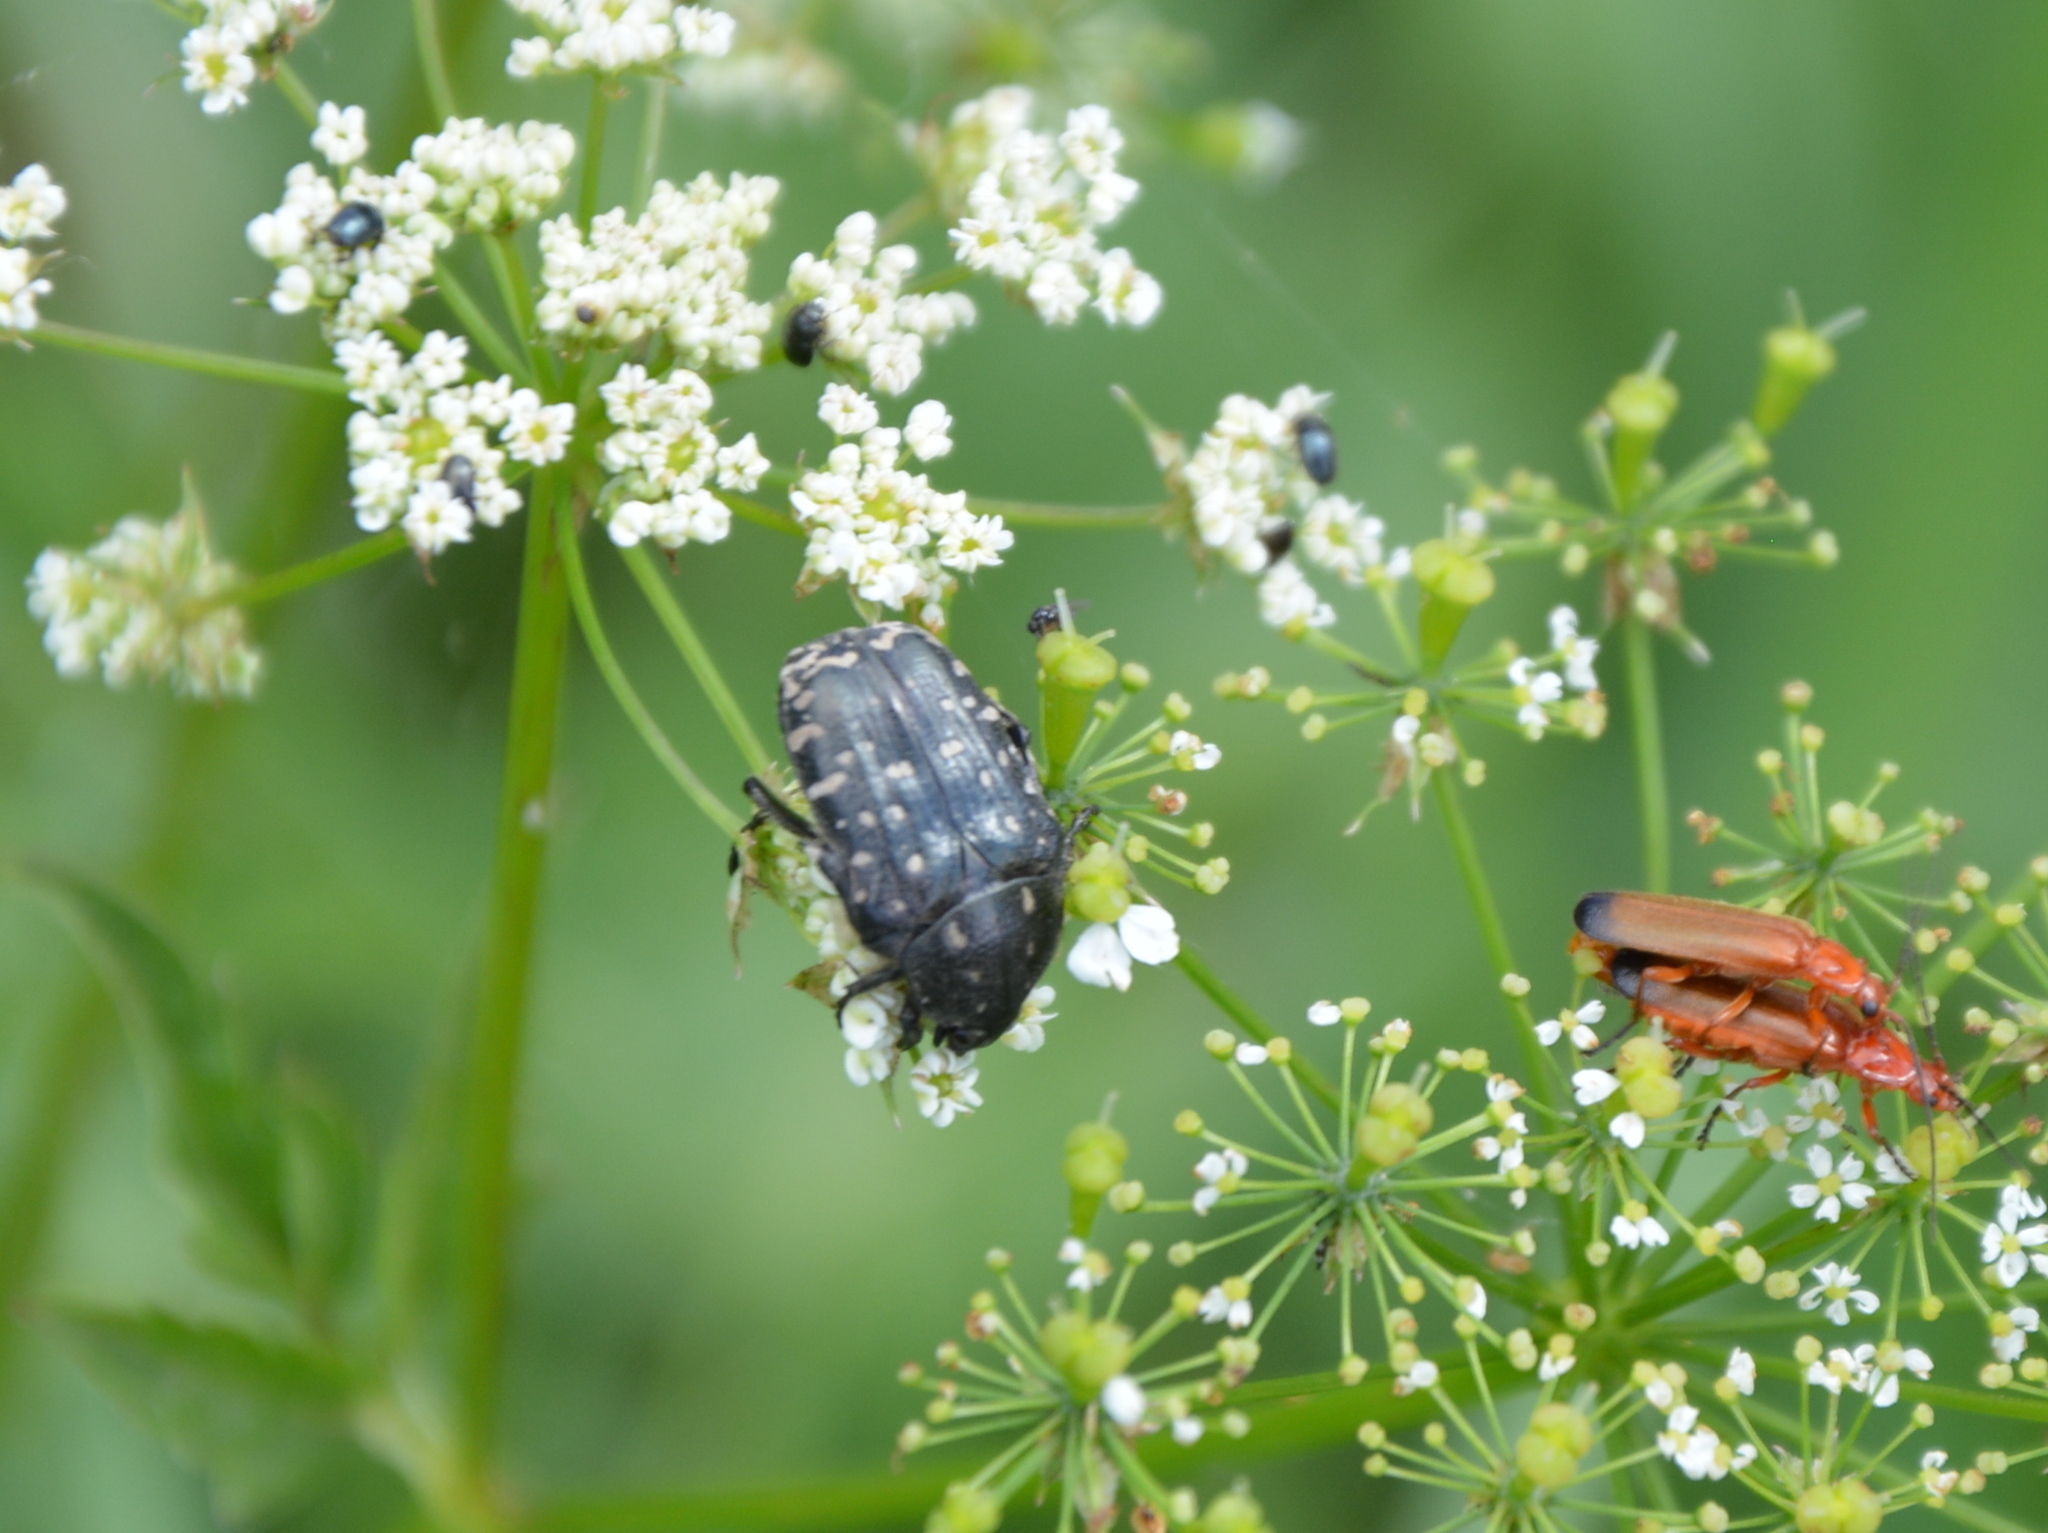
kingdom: Animalia
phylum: Arthropoda
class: Insecta
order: Coleoptera
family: Scarabaeidae
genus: Oxythyrea
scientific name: Oxythyrea funesta
